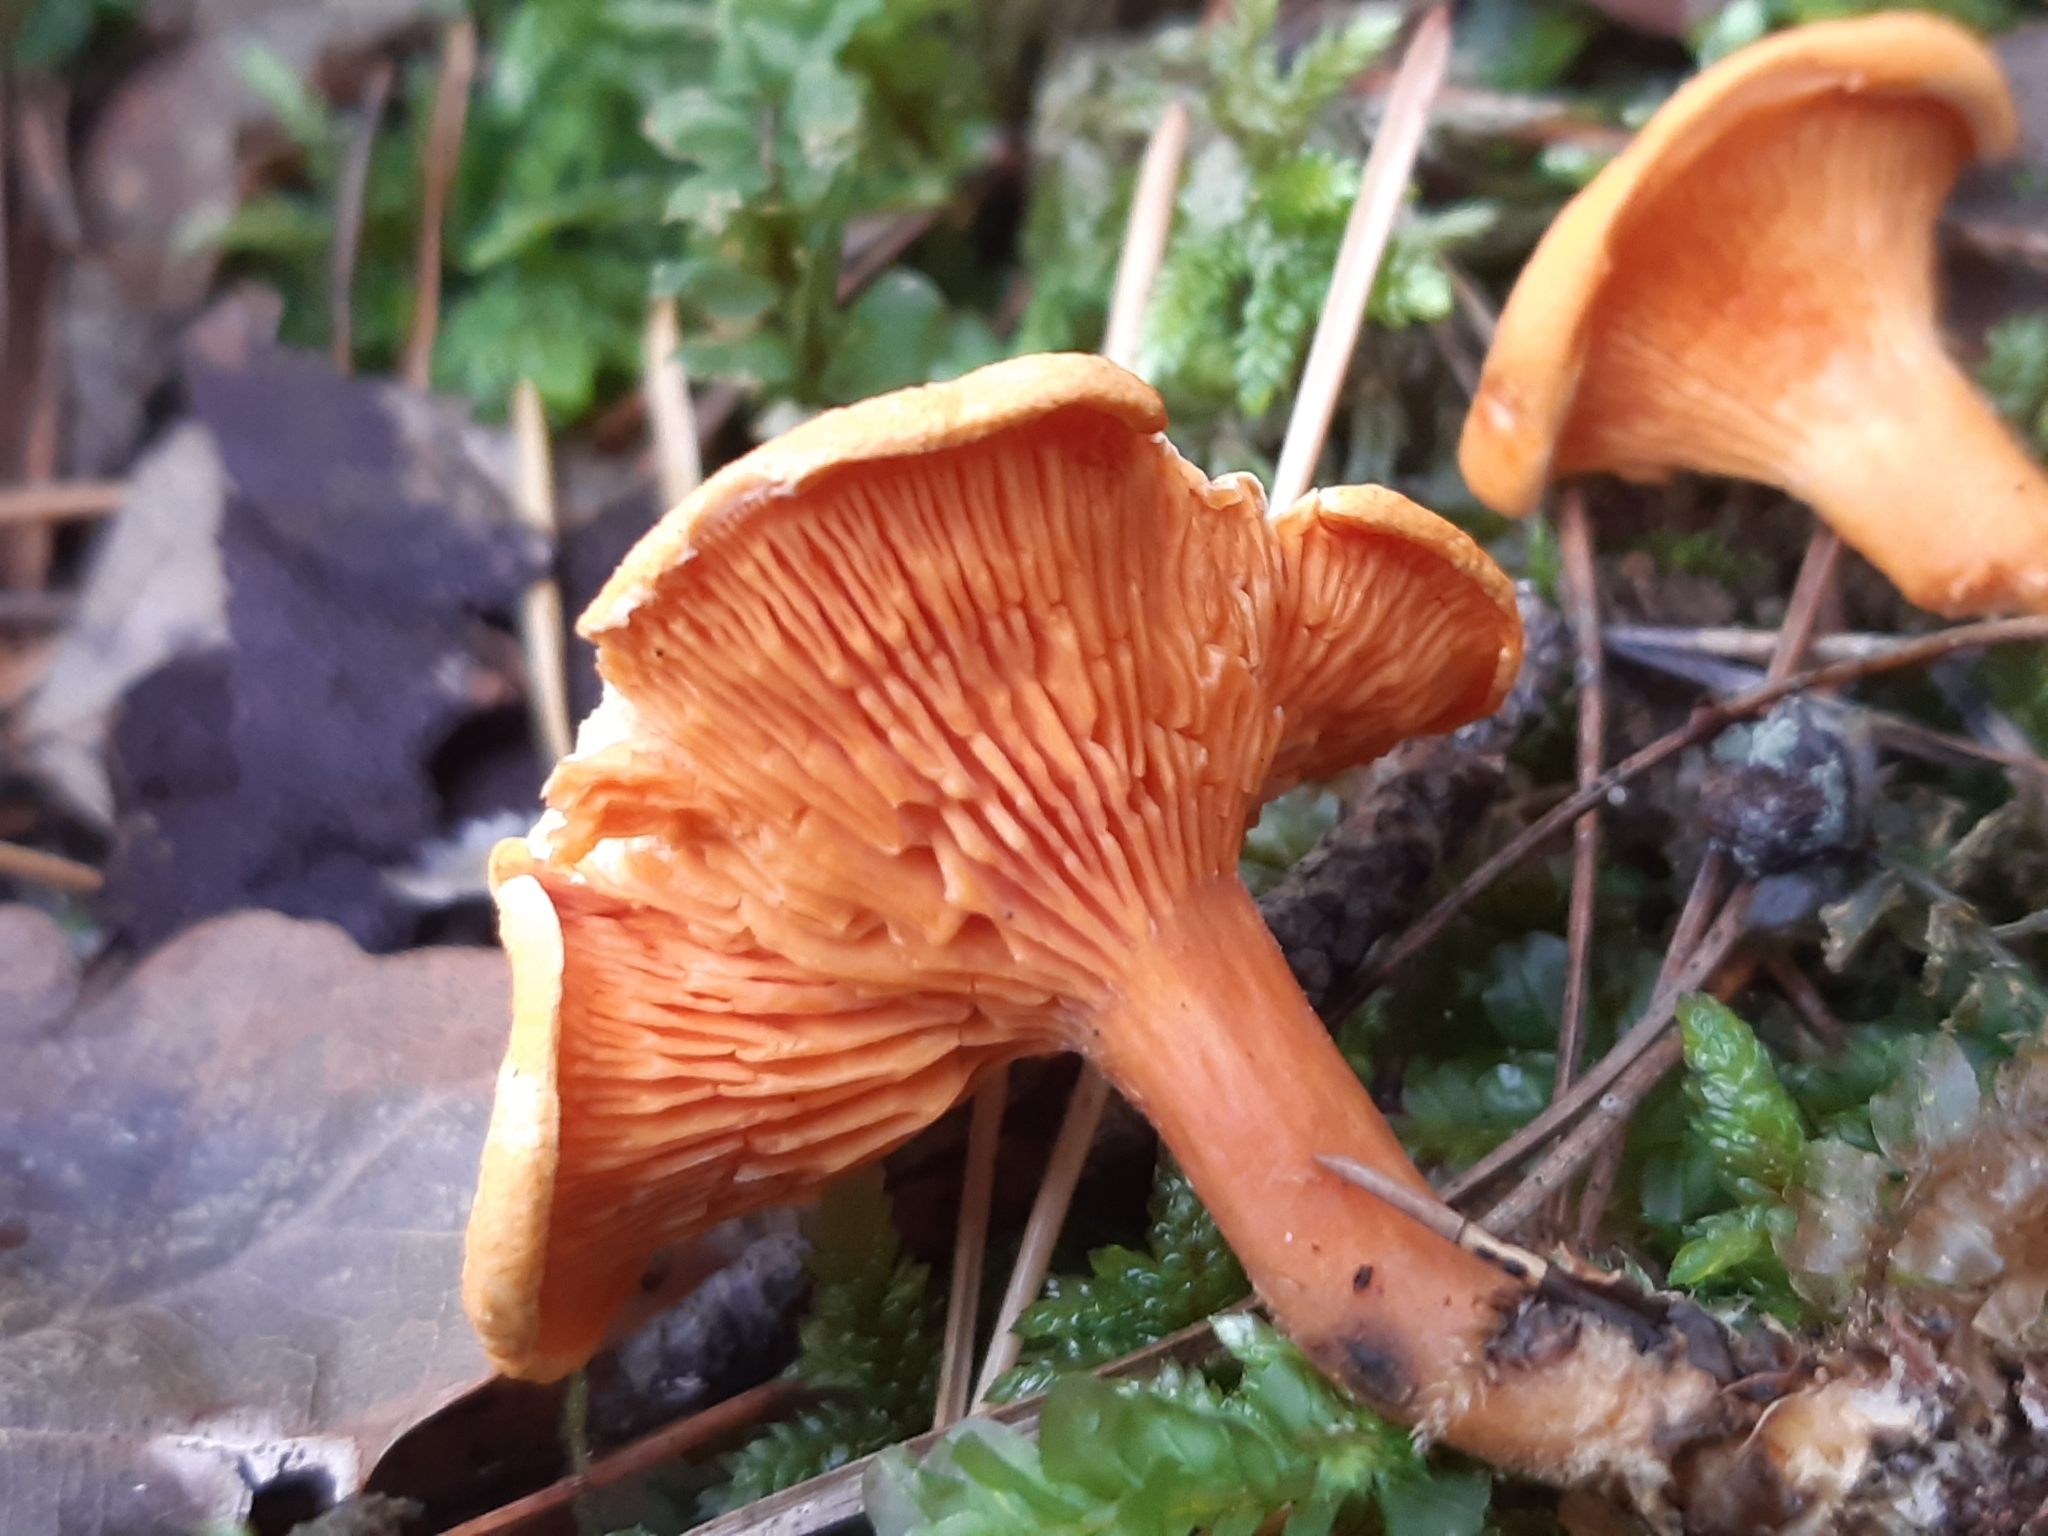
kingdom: Fungi
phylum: Basidiomycota
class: Agaricomycetes
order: Boletales
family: Hygrophoropsidaceae
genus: Hygrophoropsis
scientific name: Hygrophoropsis aurantiaca
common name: False chanterelle
